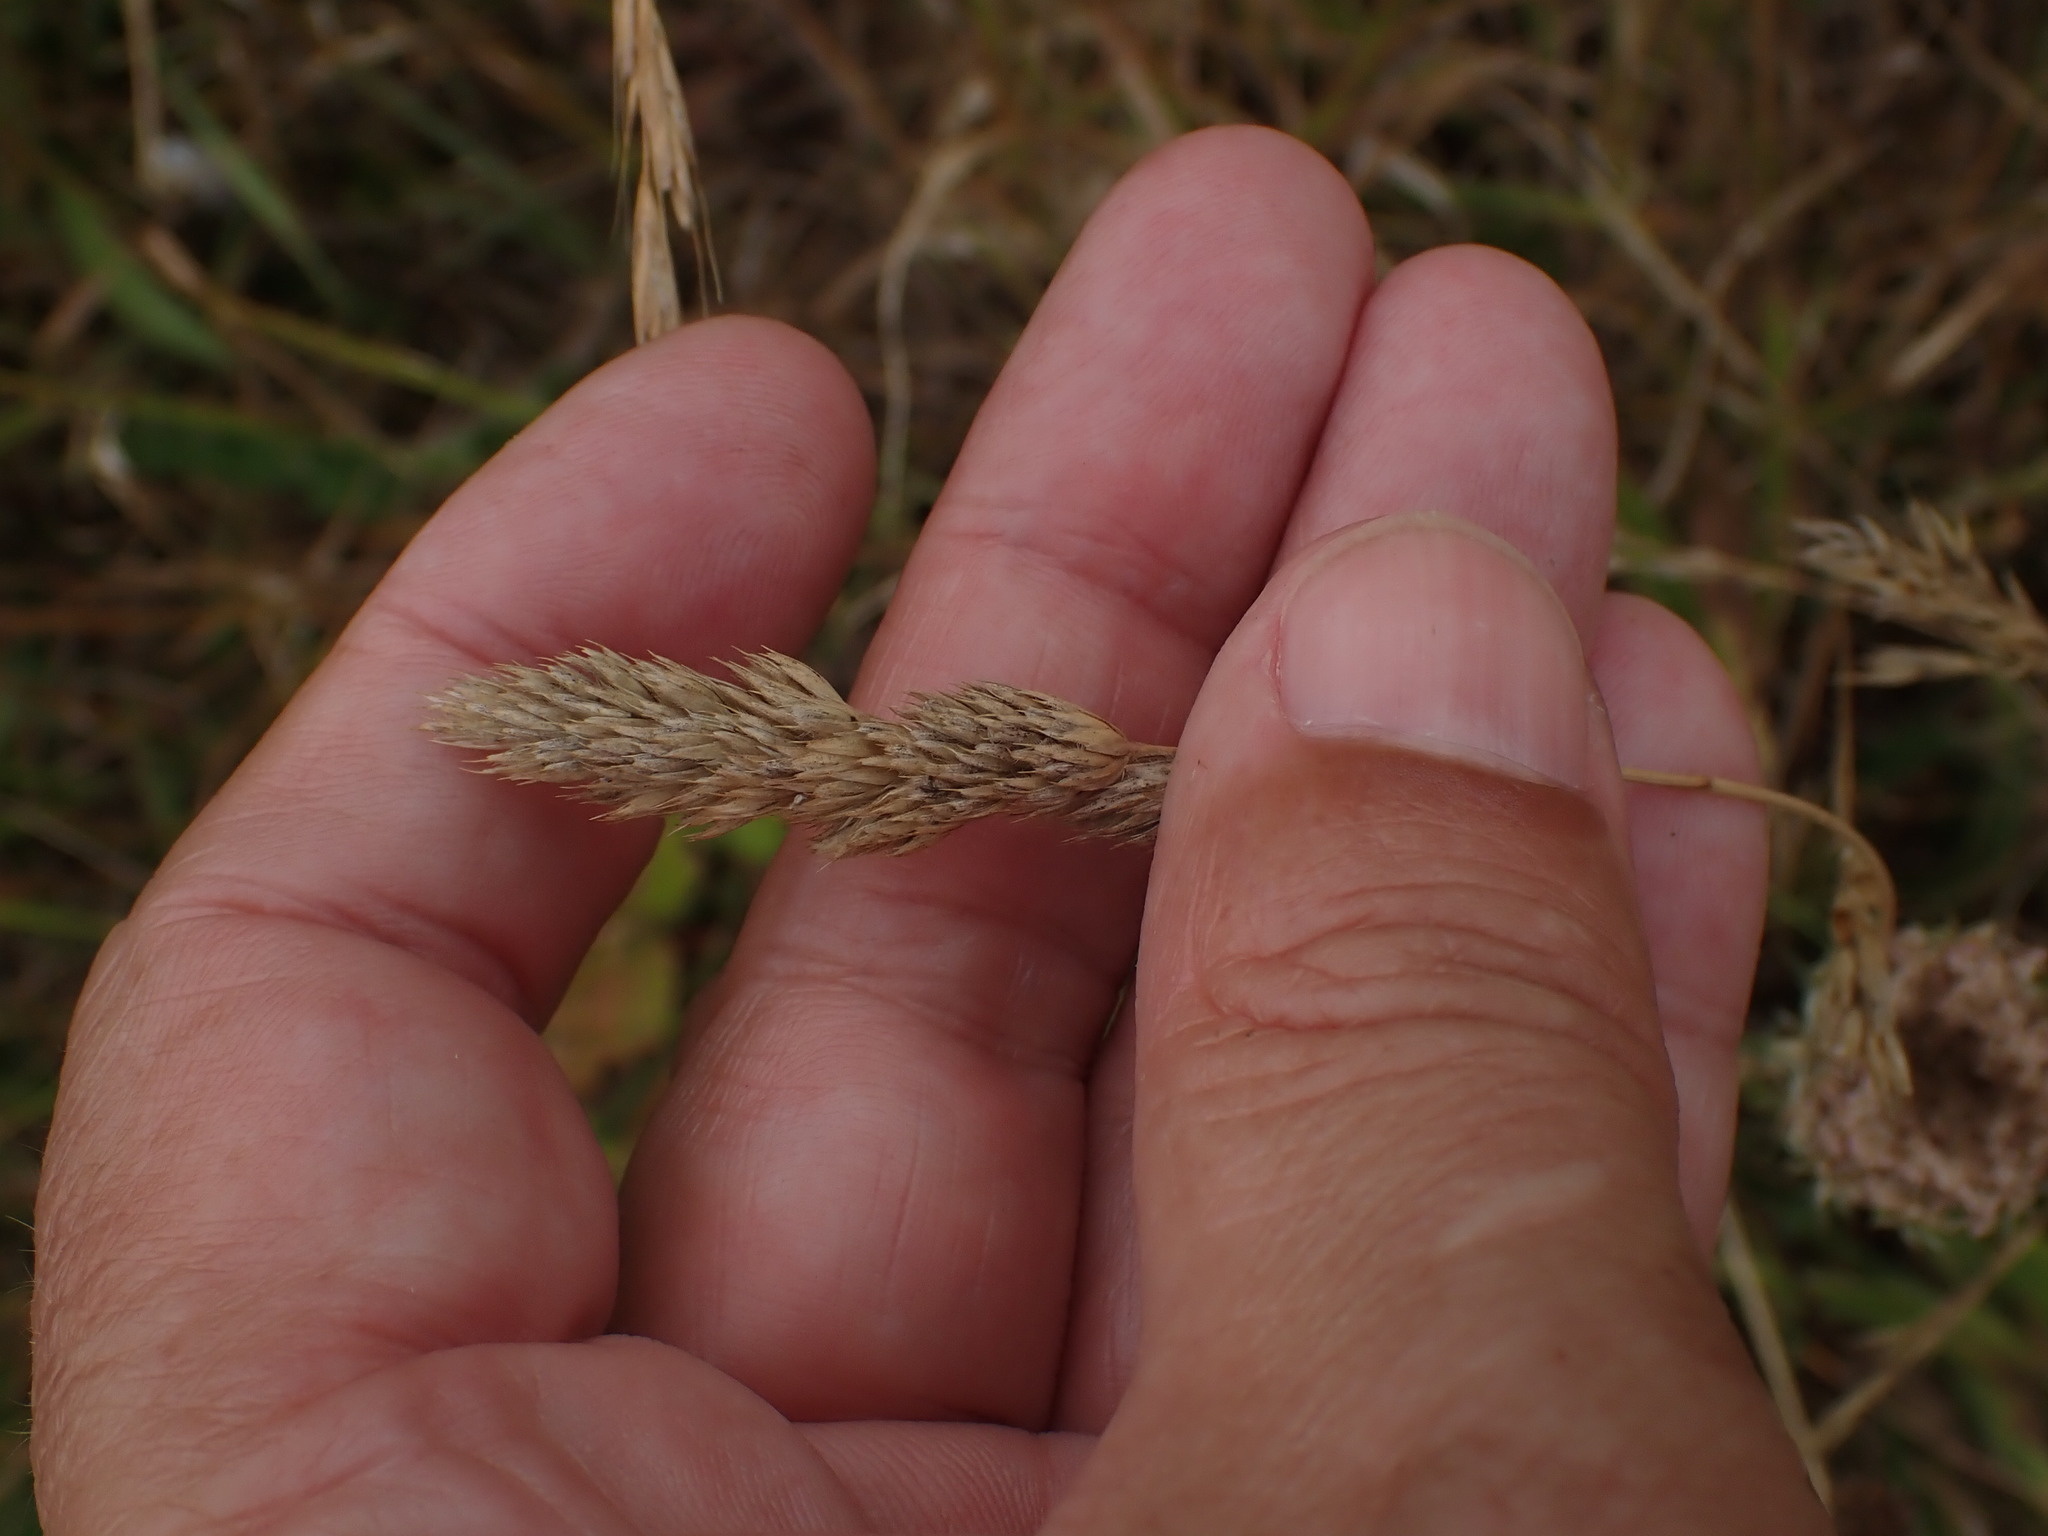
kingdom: Plantae
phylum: Tracheophyta
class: Liliopsida
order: Poales
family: Poaceae
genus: Dactylis
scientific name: Dactylis glomerata
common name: Orchardgrass
